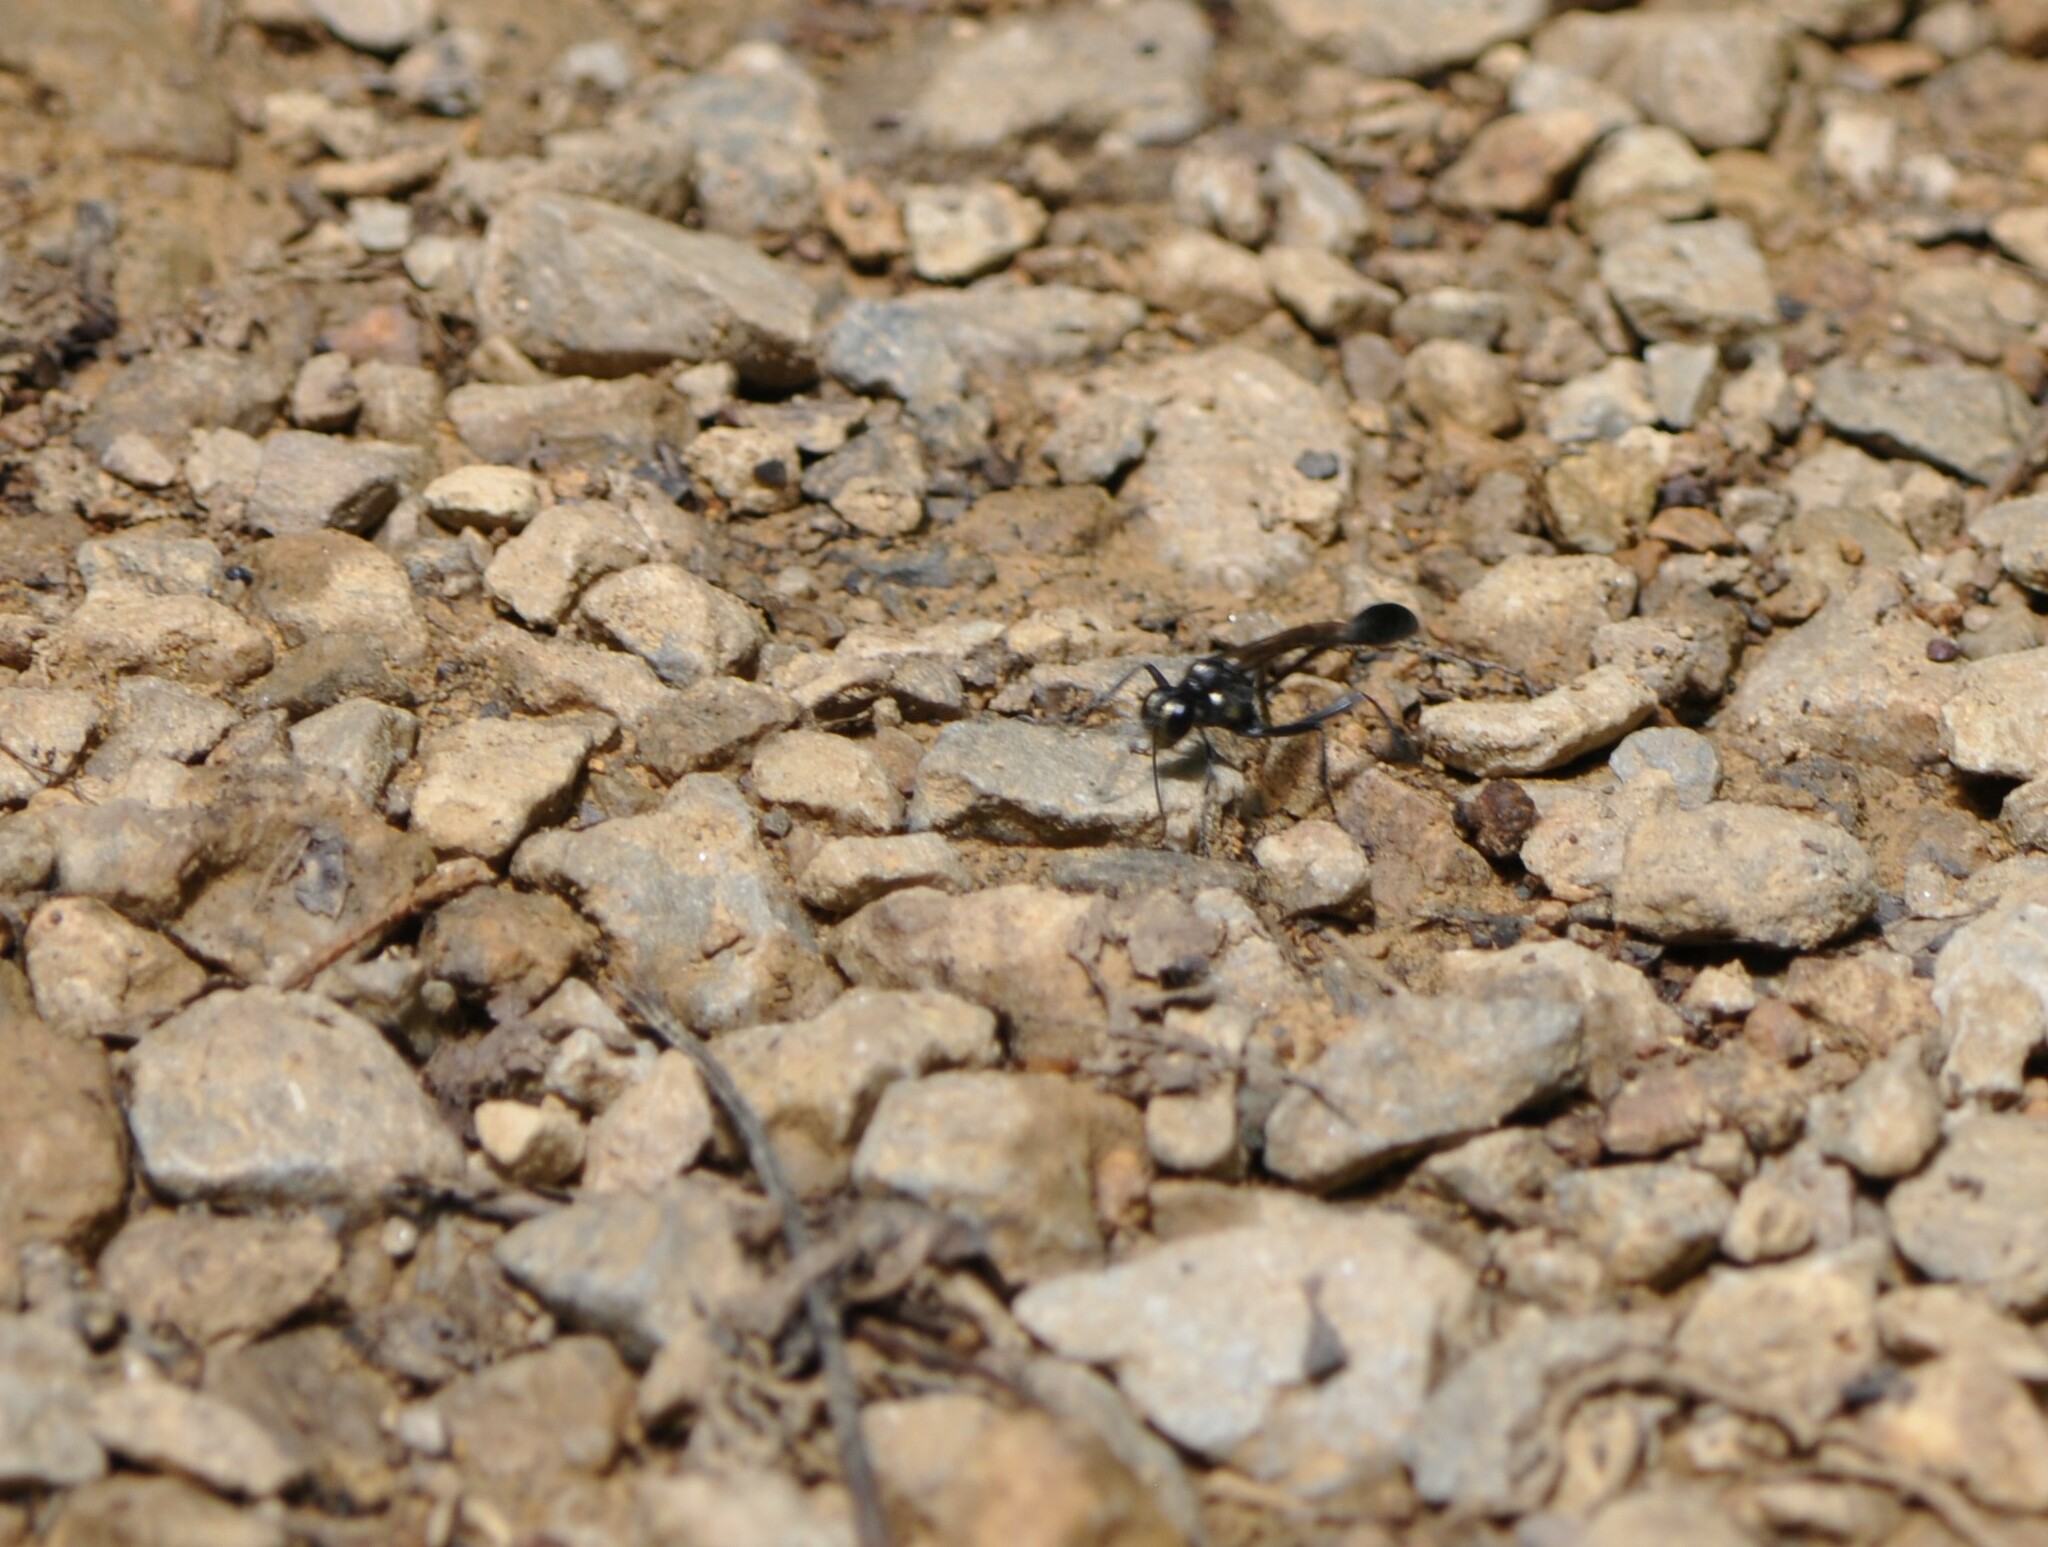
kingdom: Animalia
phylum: Arthropoda
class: Insecta
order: Hymenoptera
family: Sphecidae
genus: Eremnophila
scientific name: Eremnophila aureonotata
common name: Gold-marked thread-waisted wasp
